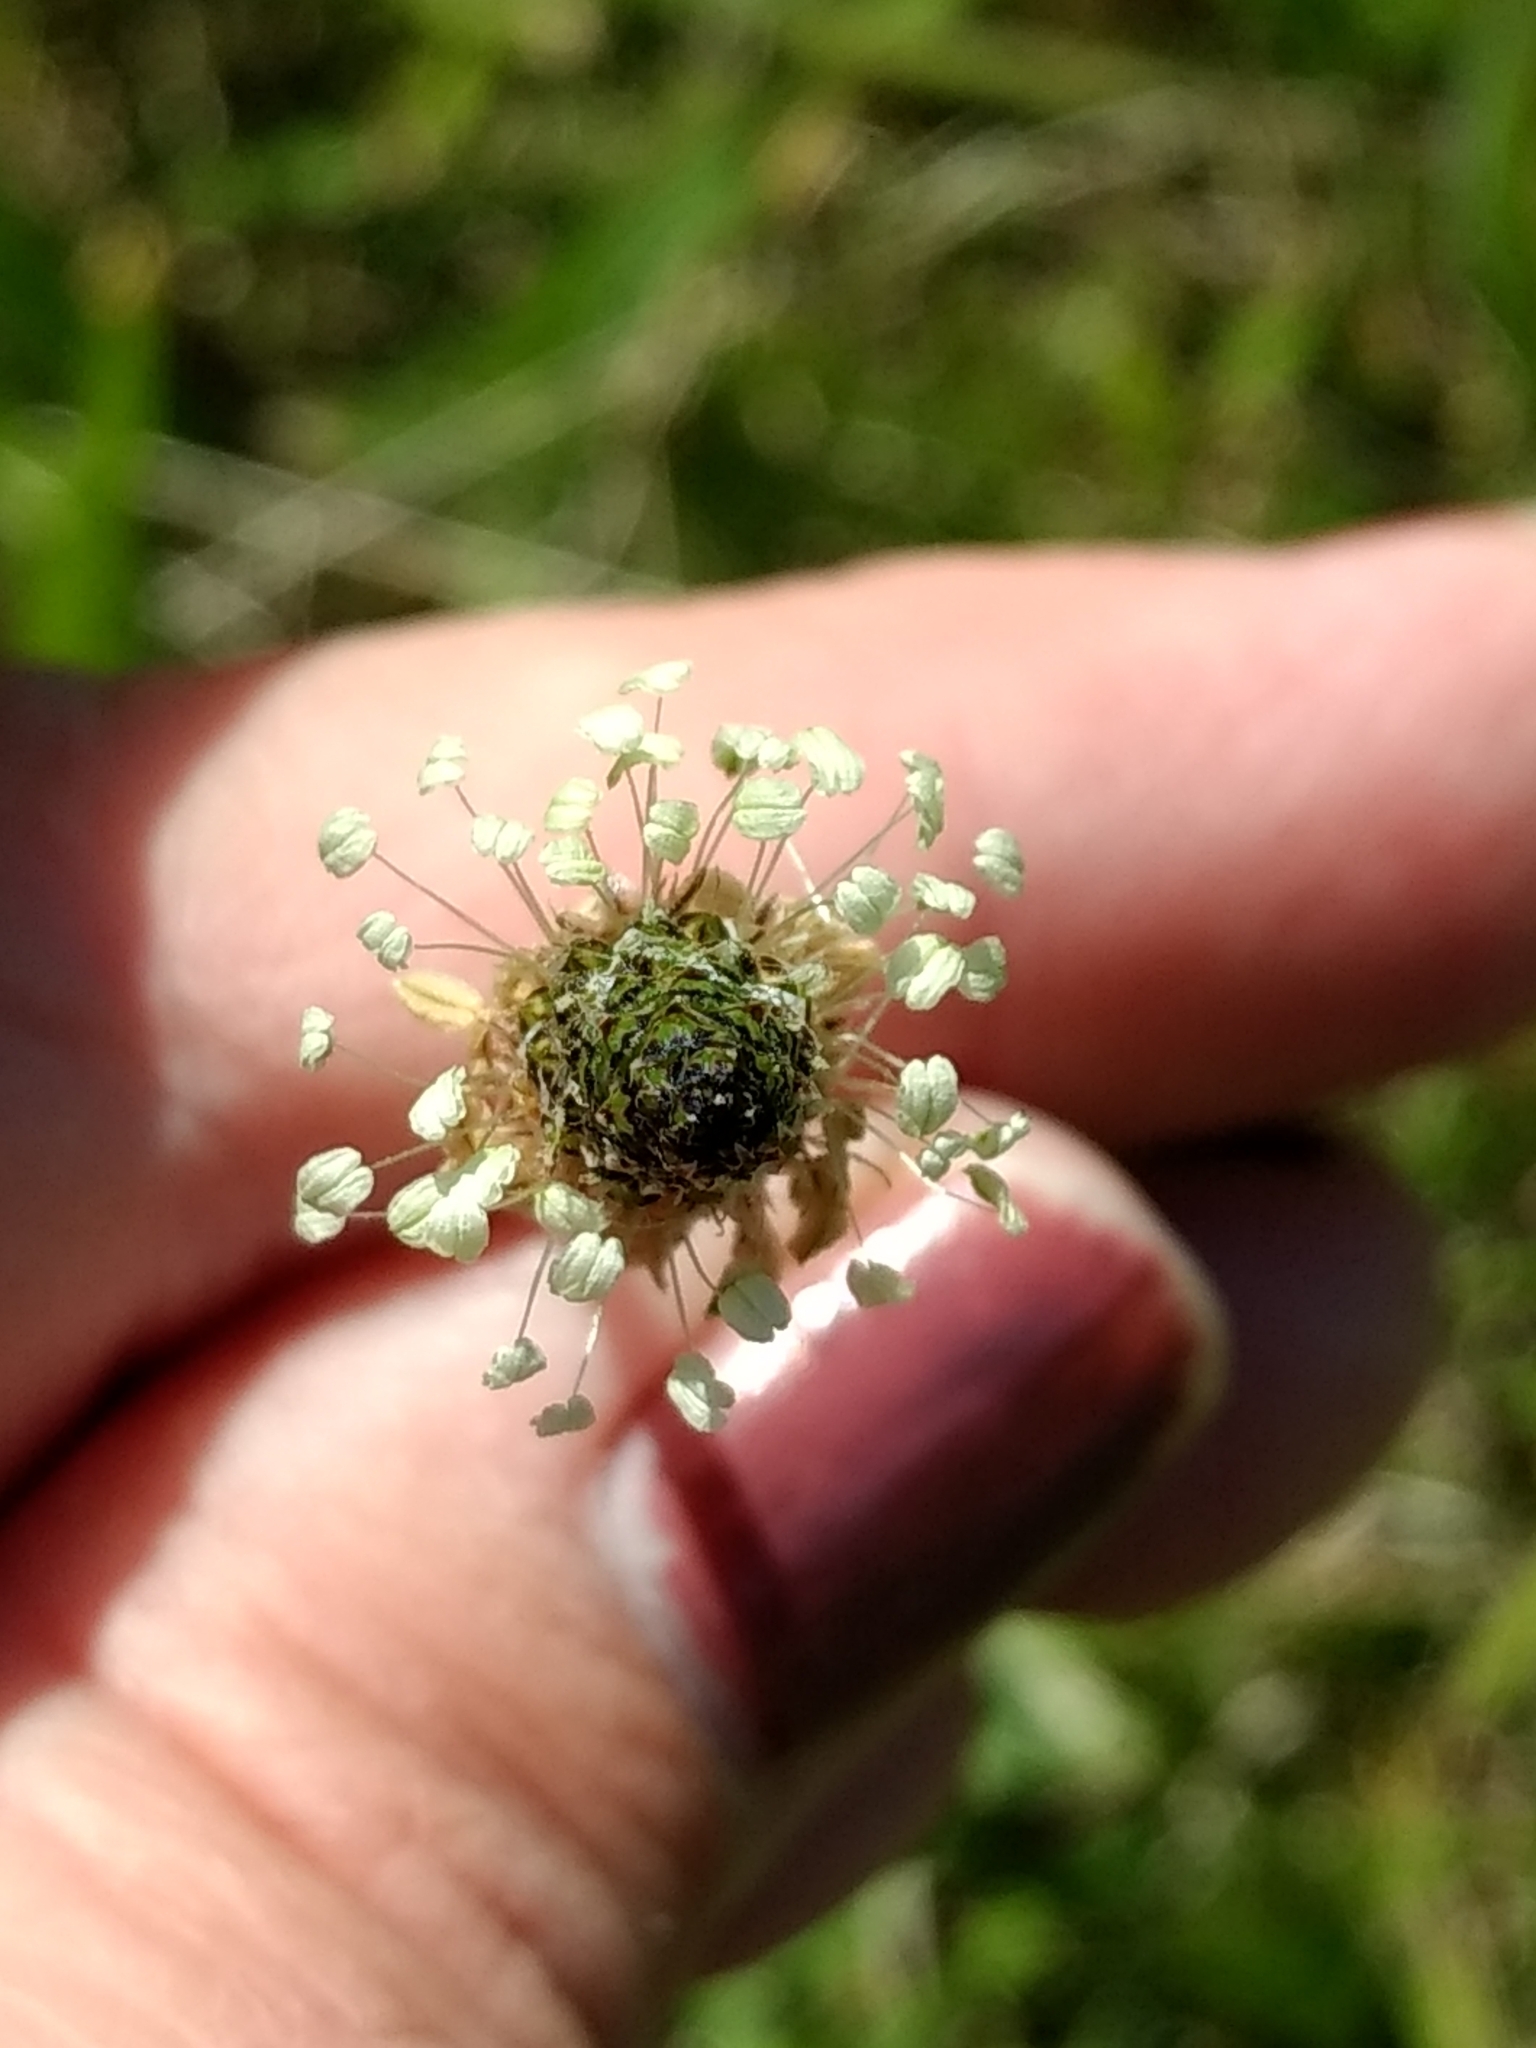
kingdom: Plantae
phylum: Tracheophyta
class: Magnoliopsida
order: Lamiales
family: Plantaginaceae
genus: Plantago
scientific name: Plantago lanceolata
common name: Ribwort plantain
